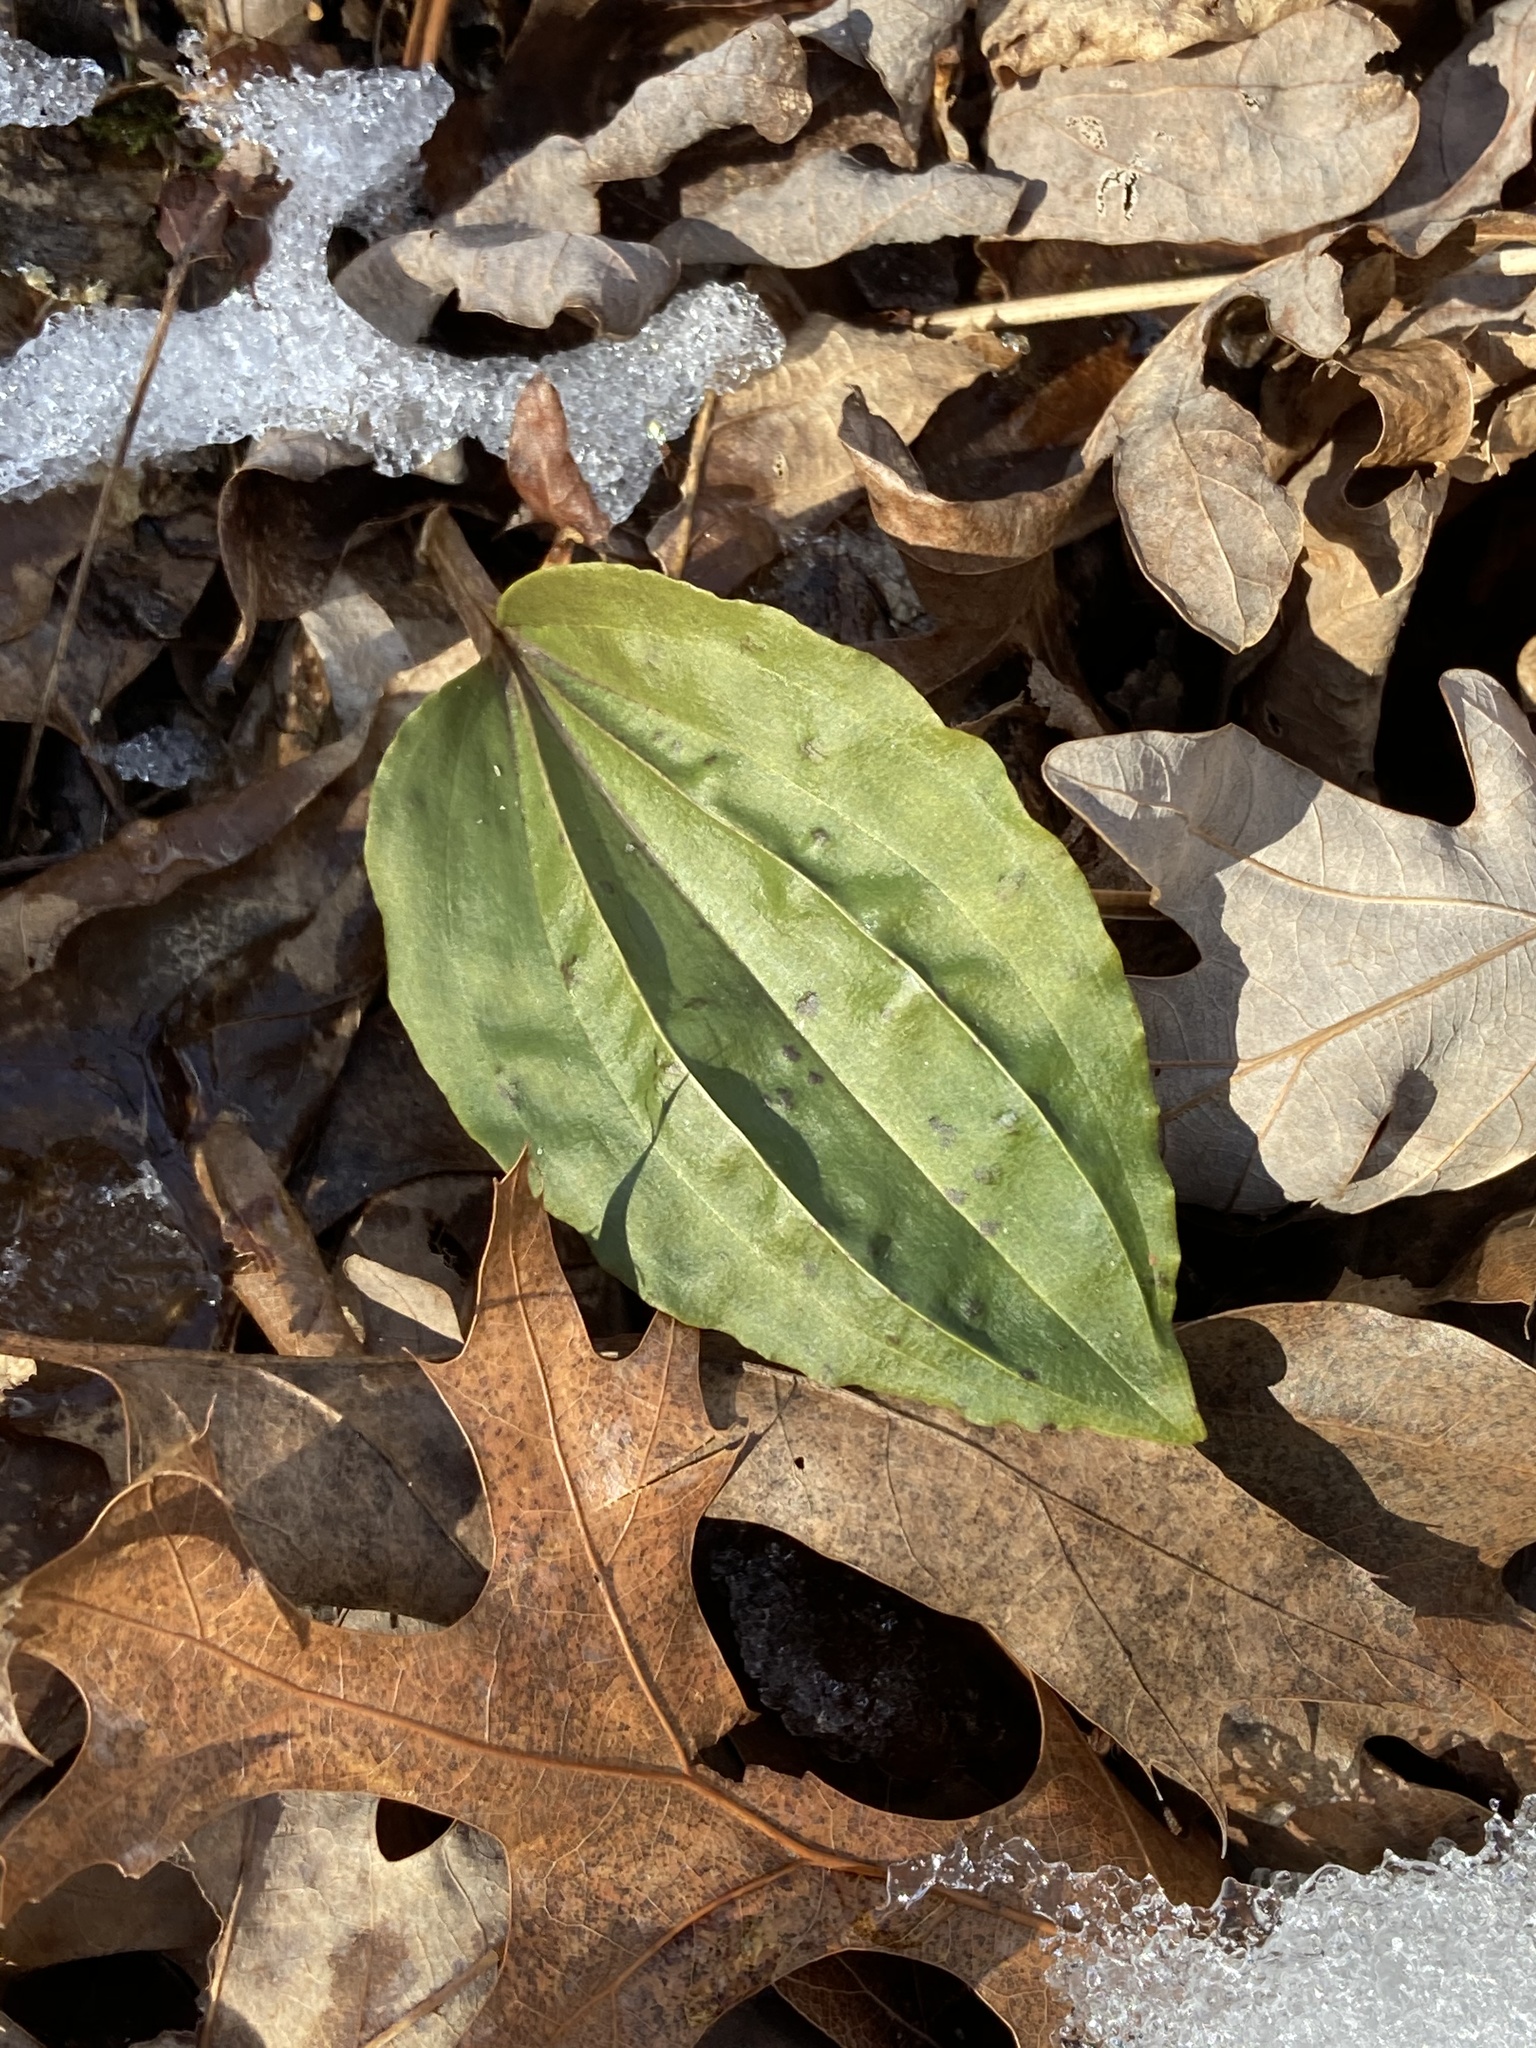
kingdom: Plantae
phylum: Tracheophyta
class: Liliopsida
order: Asparagales
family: Orchidaceae
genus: Tipularia
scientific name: Tipularia discolor
